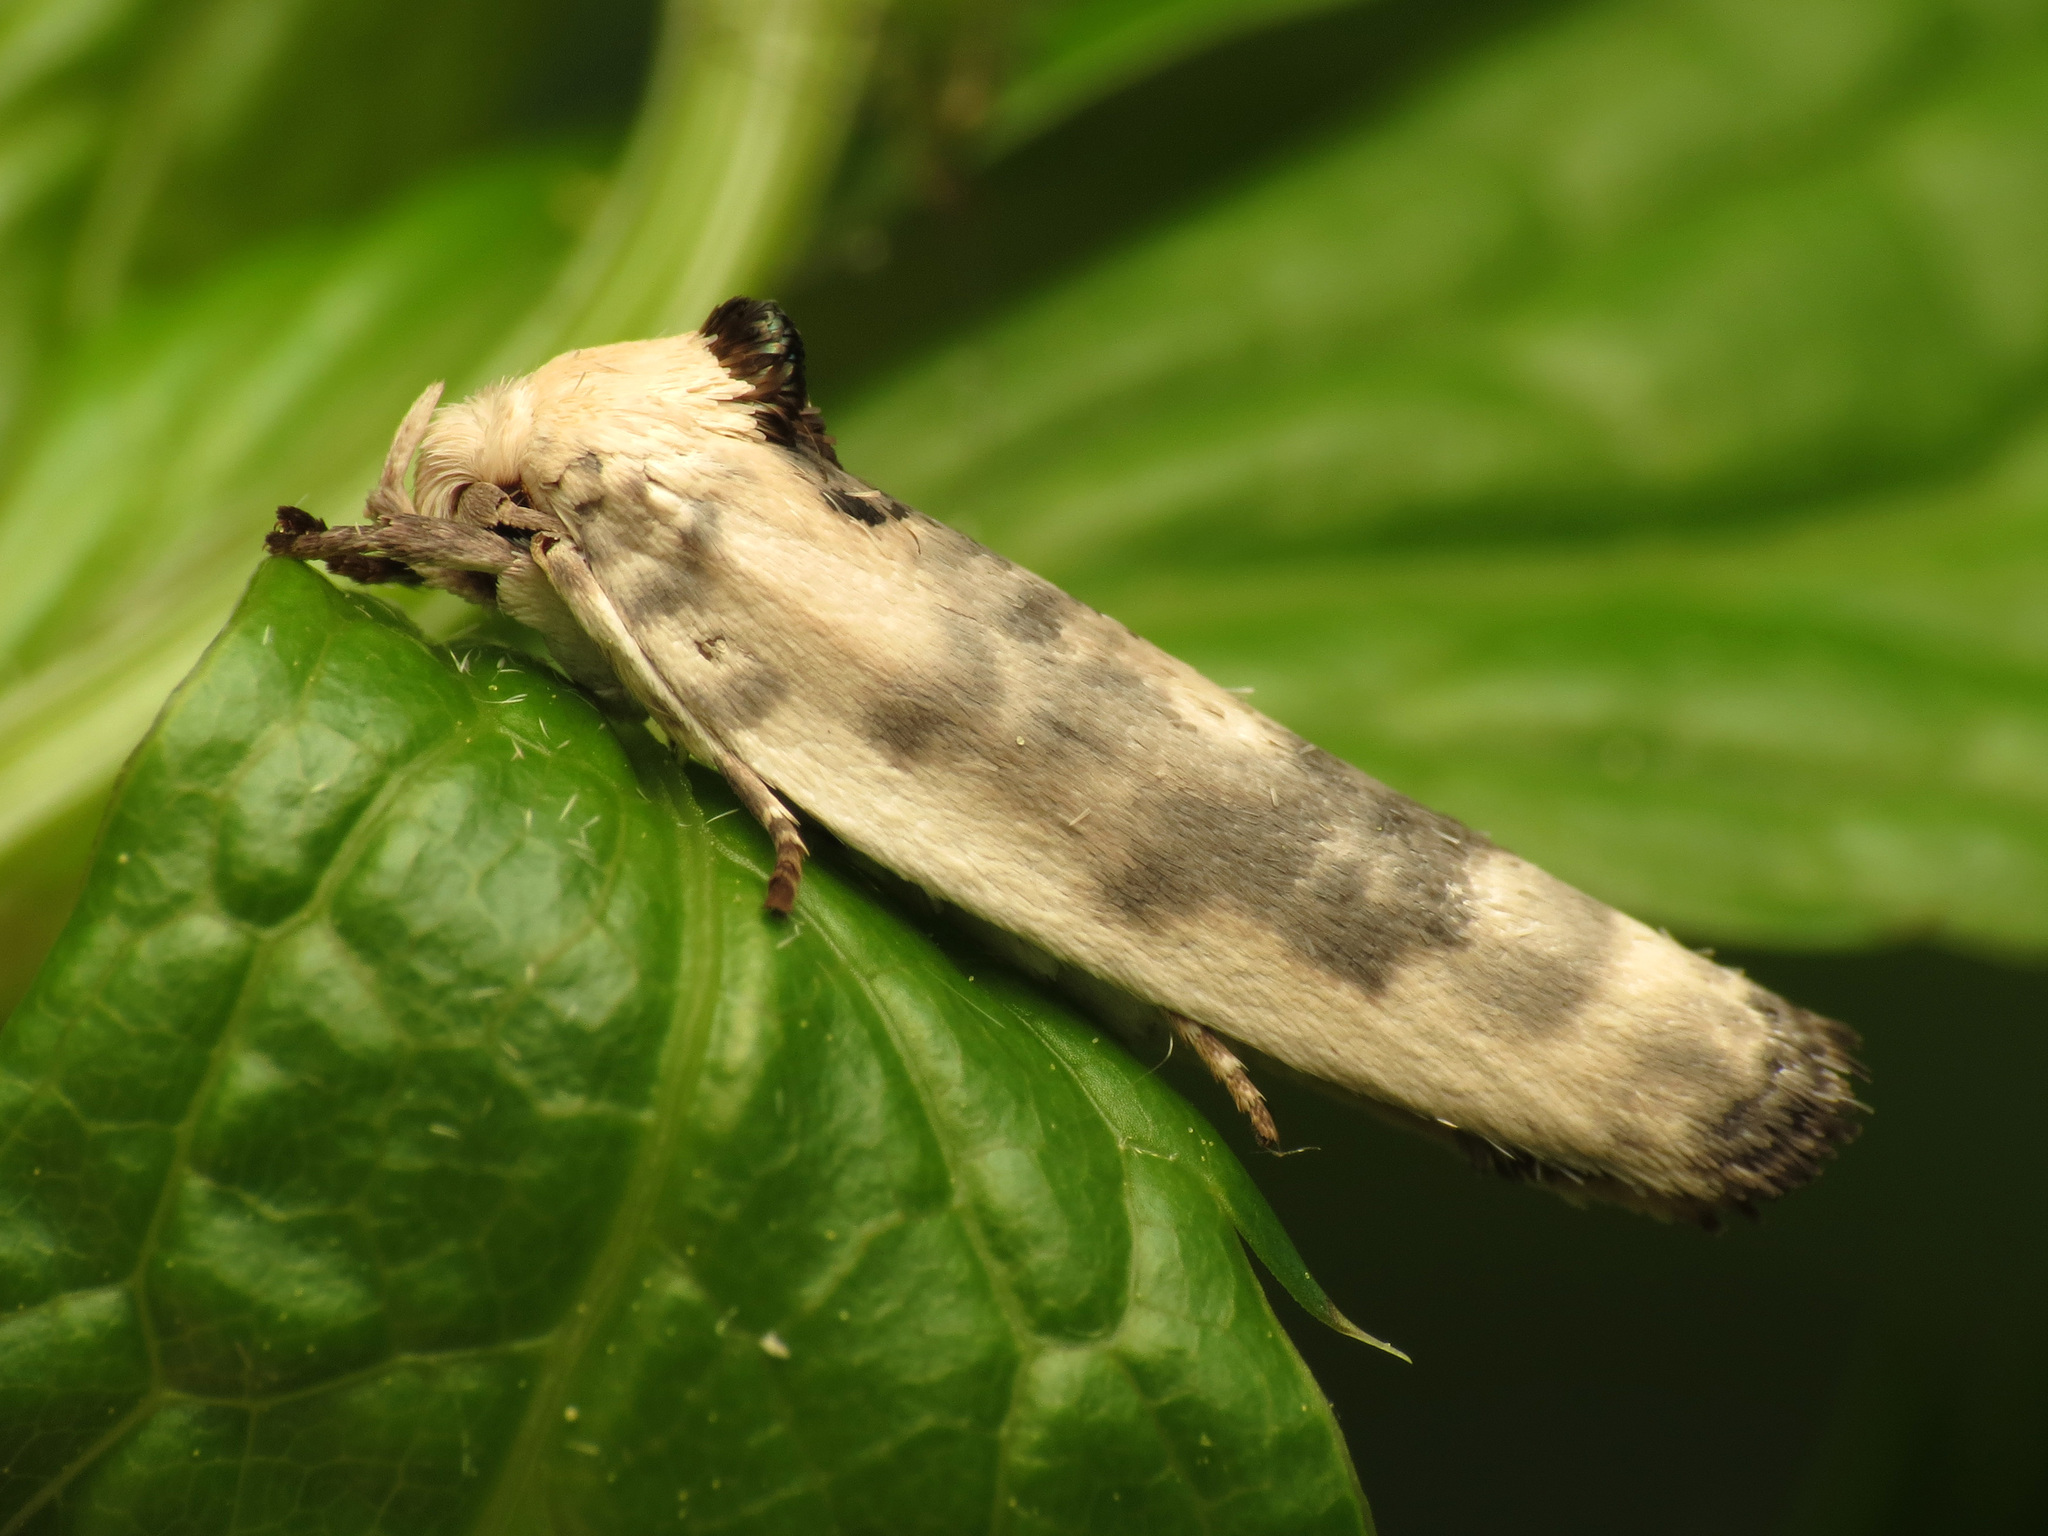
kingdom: Animalia
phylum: Arthropoda
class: Insecta
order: Lepidoptera
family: Depressariidae
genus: Antaeotricha
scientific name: Antaeotricha schlaegeri
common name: Schlaeger's fruitworm moth
